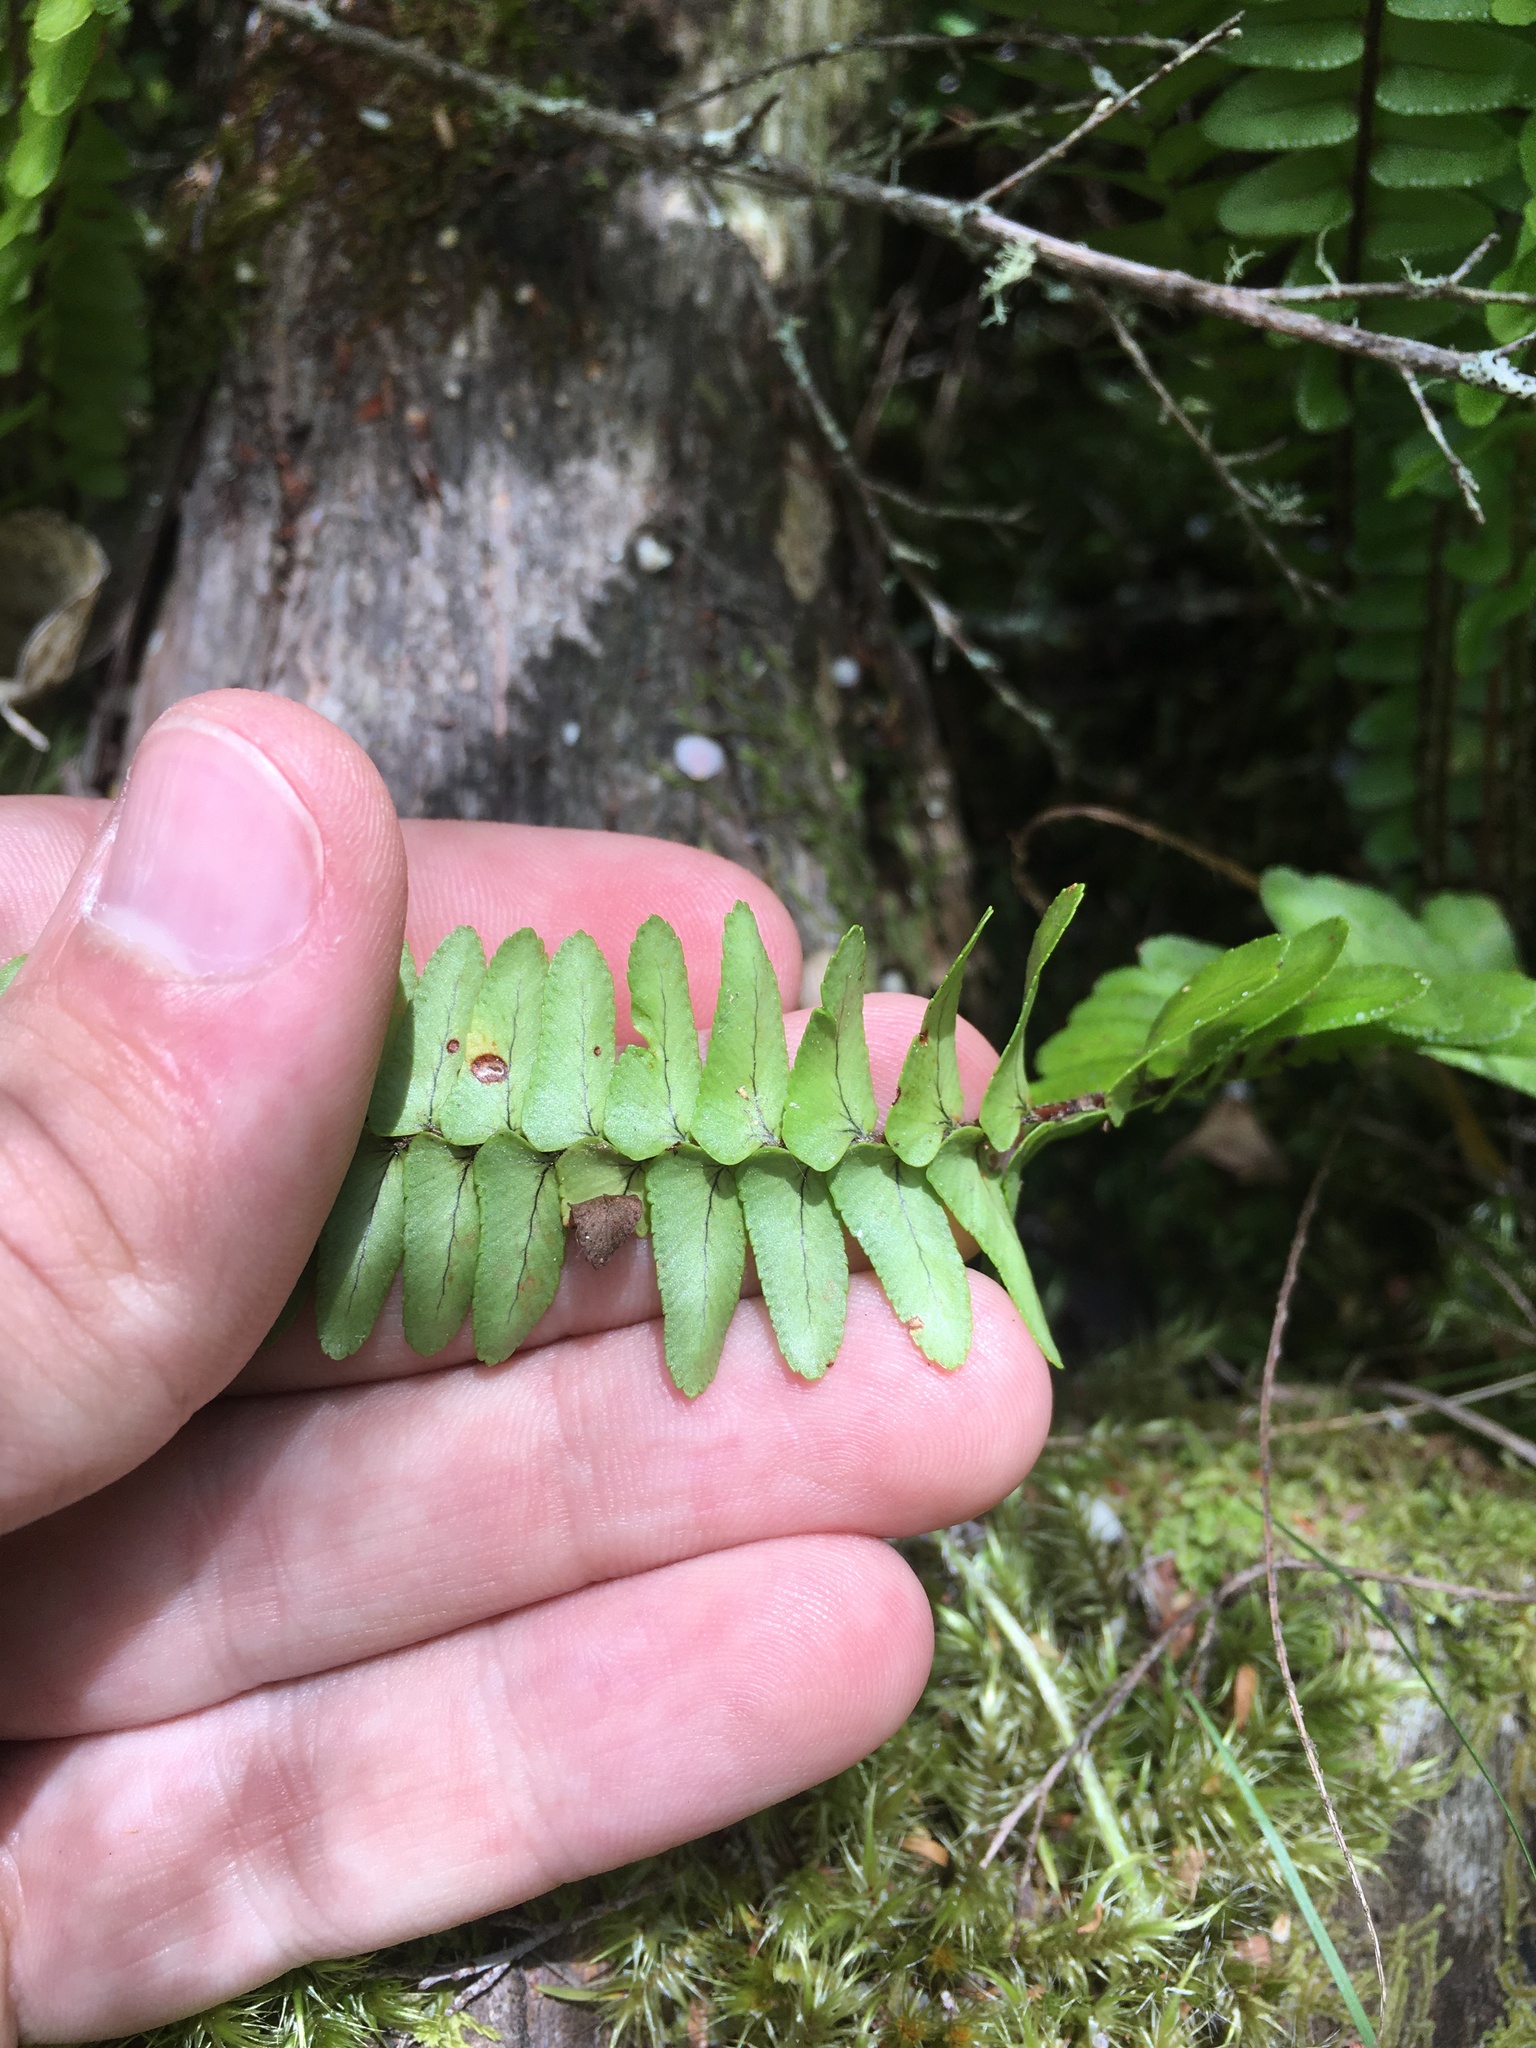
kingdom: Plantae
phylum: Tracheophyta
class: Polypodiopsida
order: Polypodiales
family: Nephrolepidaceae
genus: Nephrolepis
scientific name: Nephrolepis flexuosa
